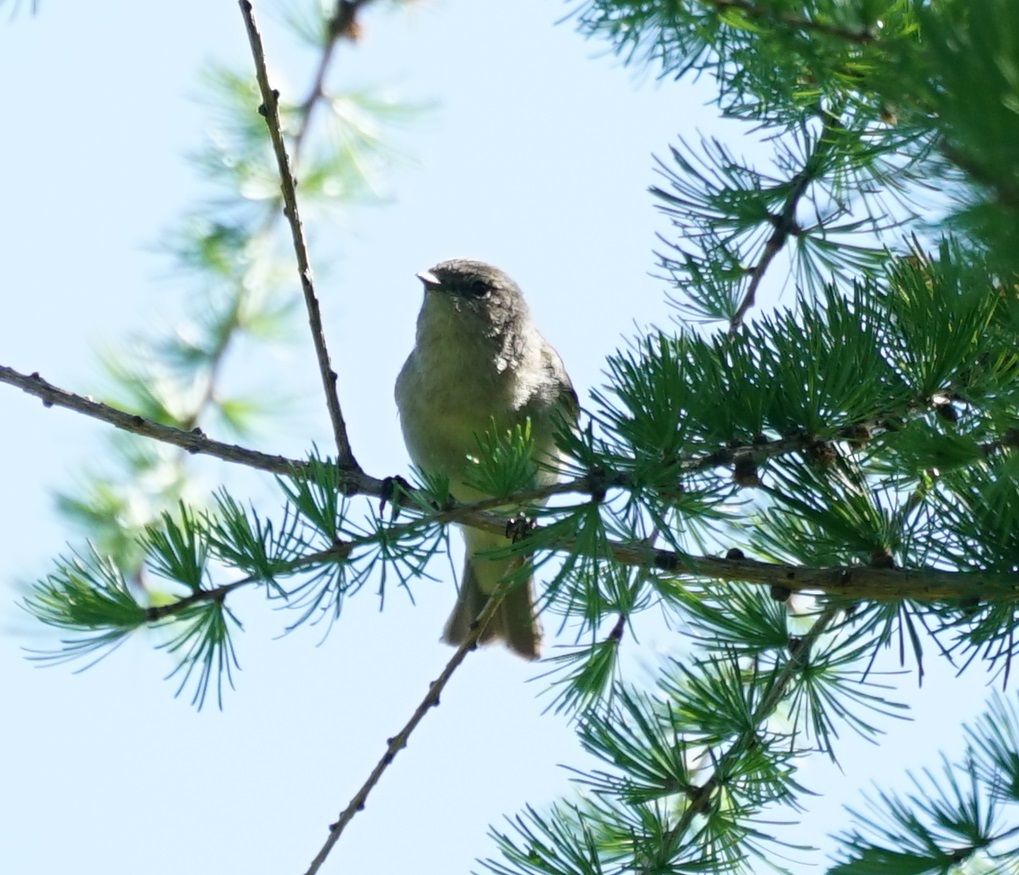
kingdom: Animalia
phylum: Chordata
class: Aves
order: Passeriformes
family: Phylloscopidae
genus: Phylloscopus
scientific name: Phylloscopus collybita
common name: Common chiffchaff
